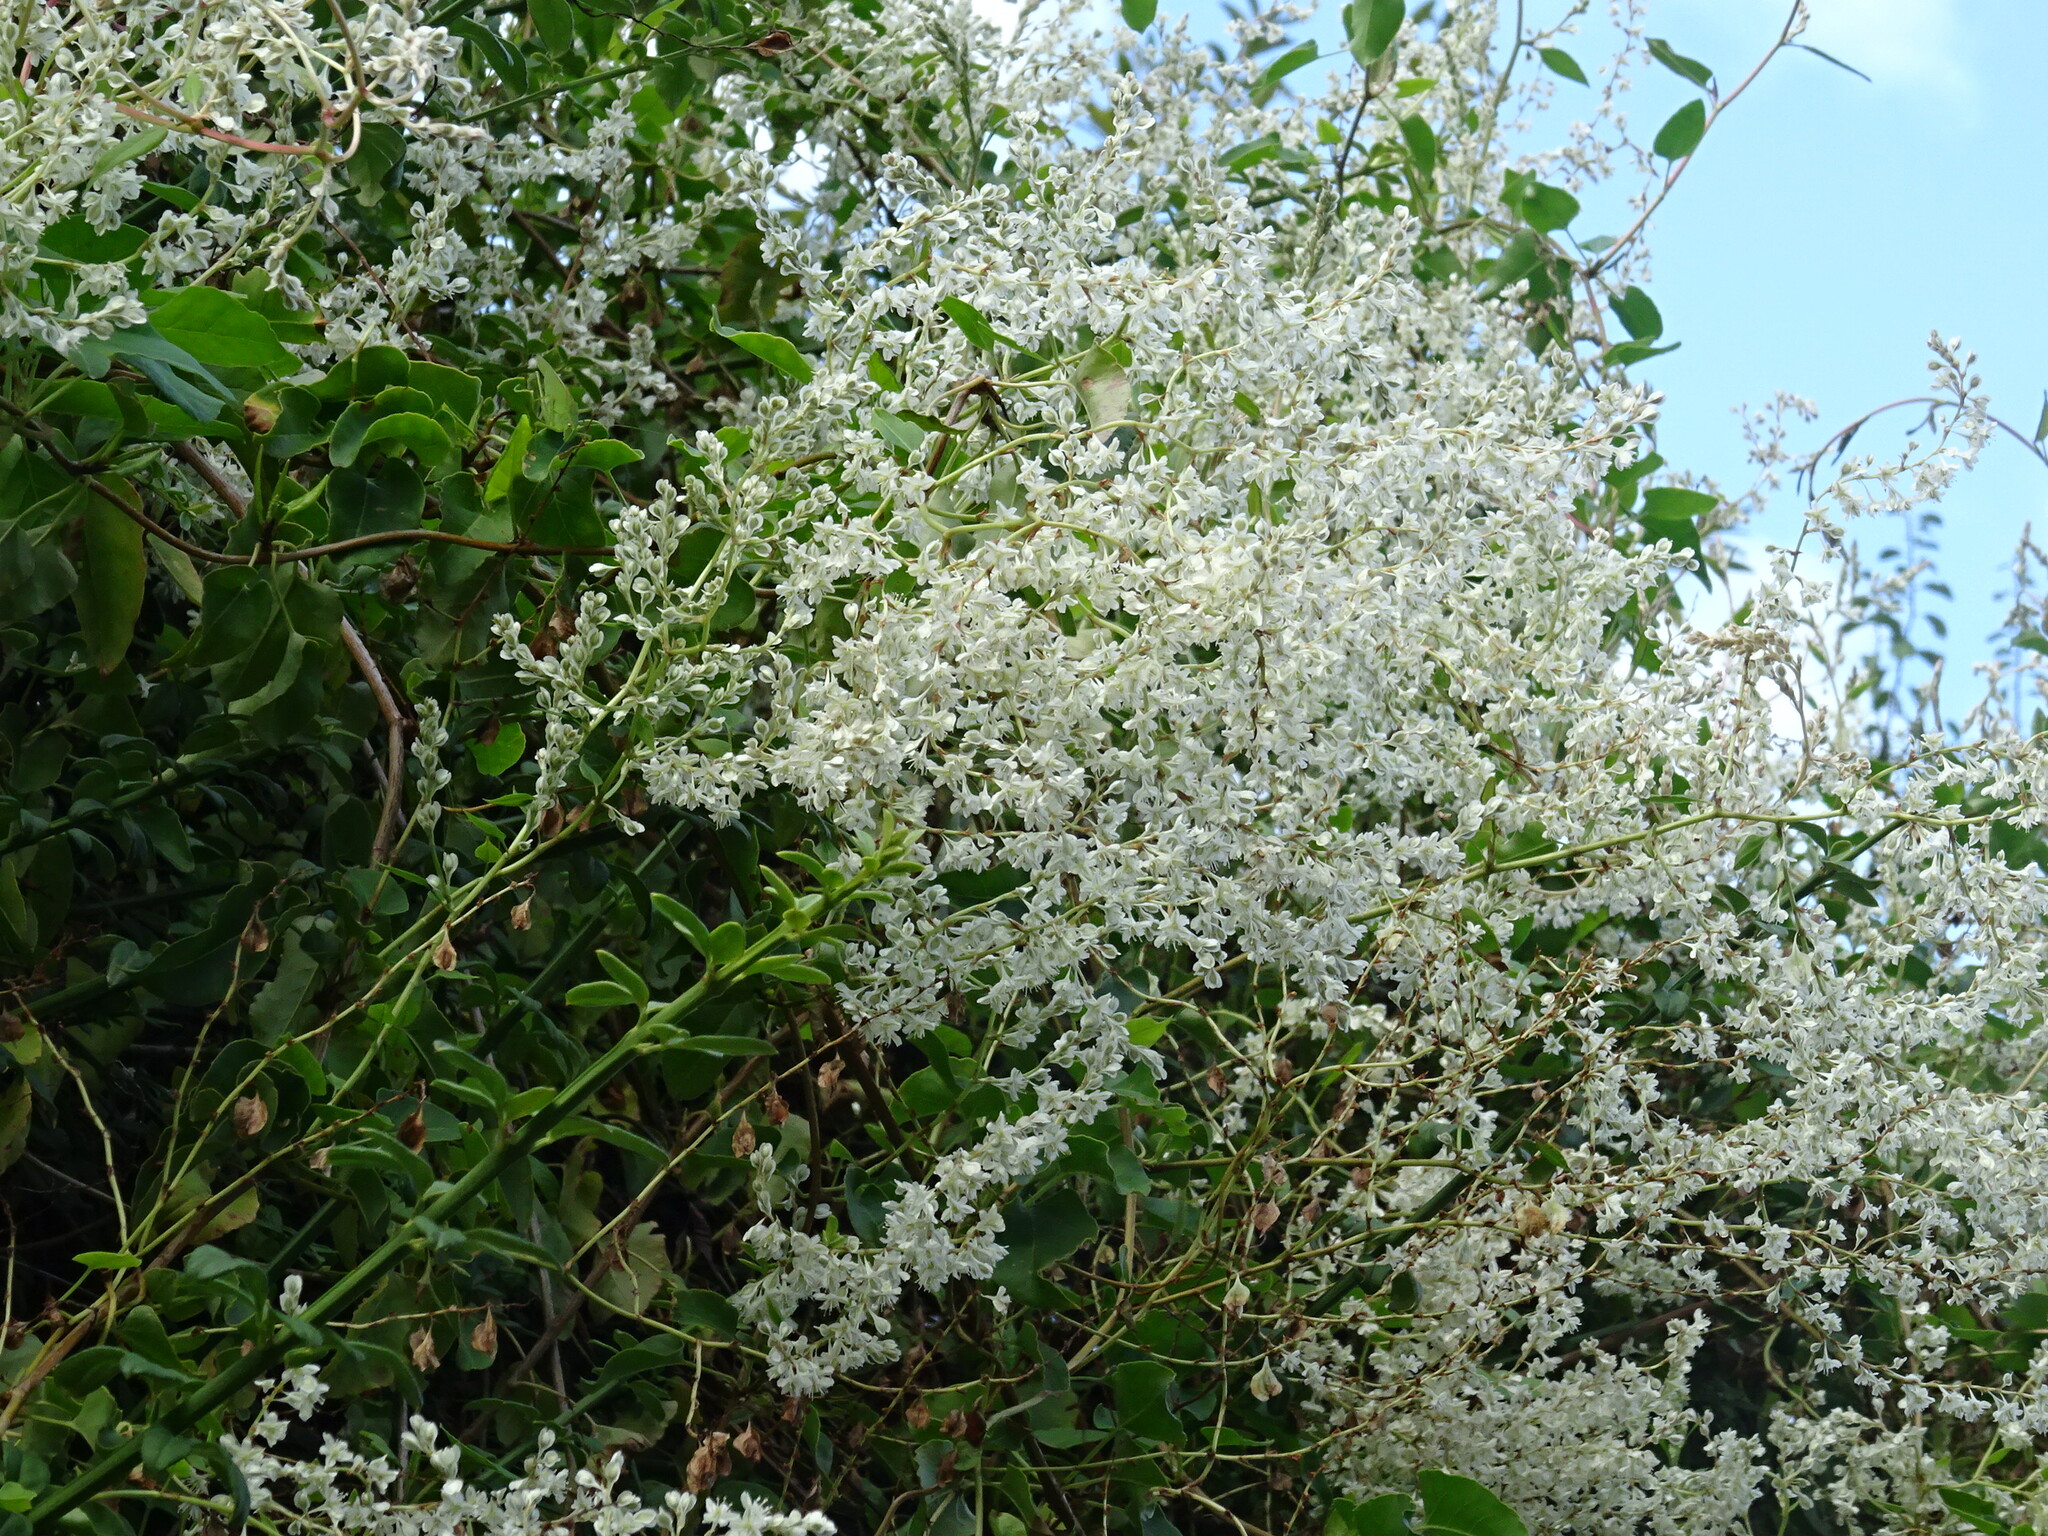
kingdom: Plantae
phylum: Tracheophyta
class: Magnoliopsida
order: Caryophyllales
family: Polygonaceae
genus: Fallopia
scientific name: Fallopia baldschuanica
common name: Russian-vine
